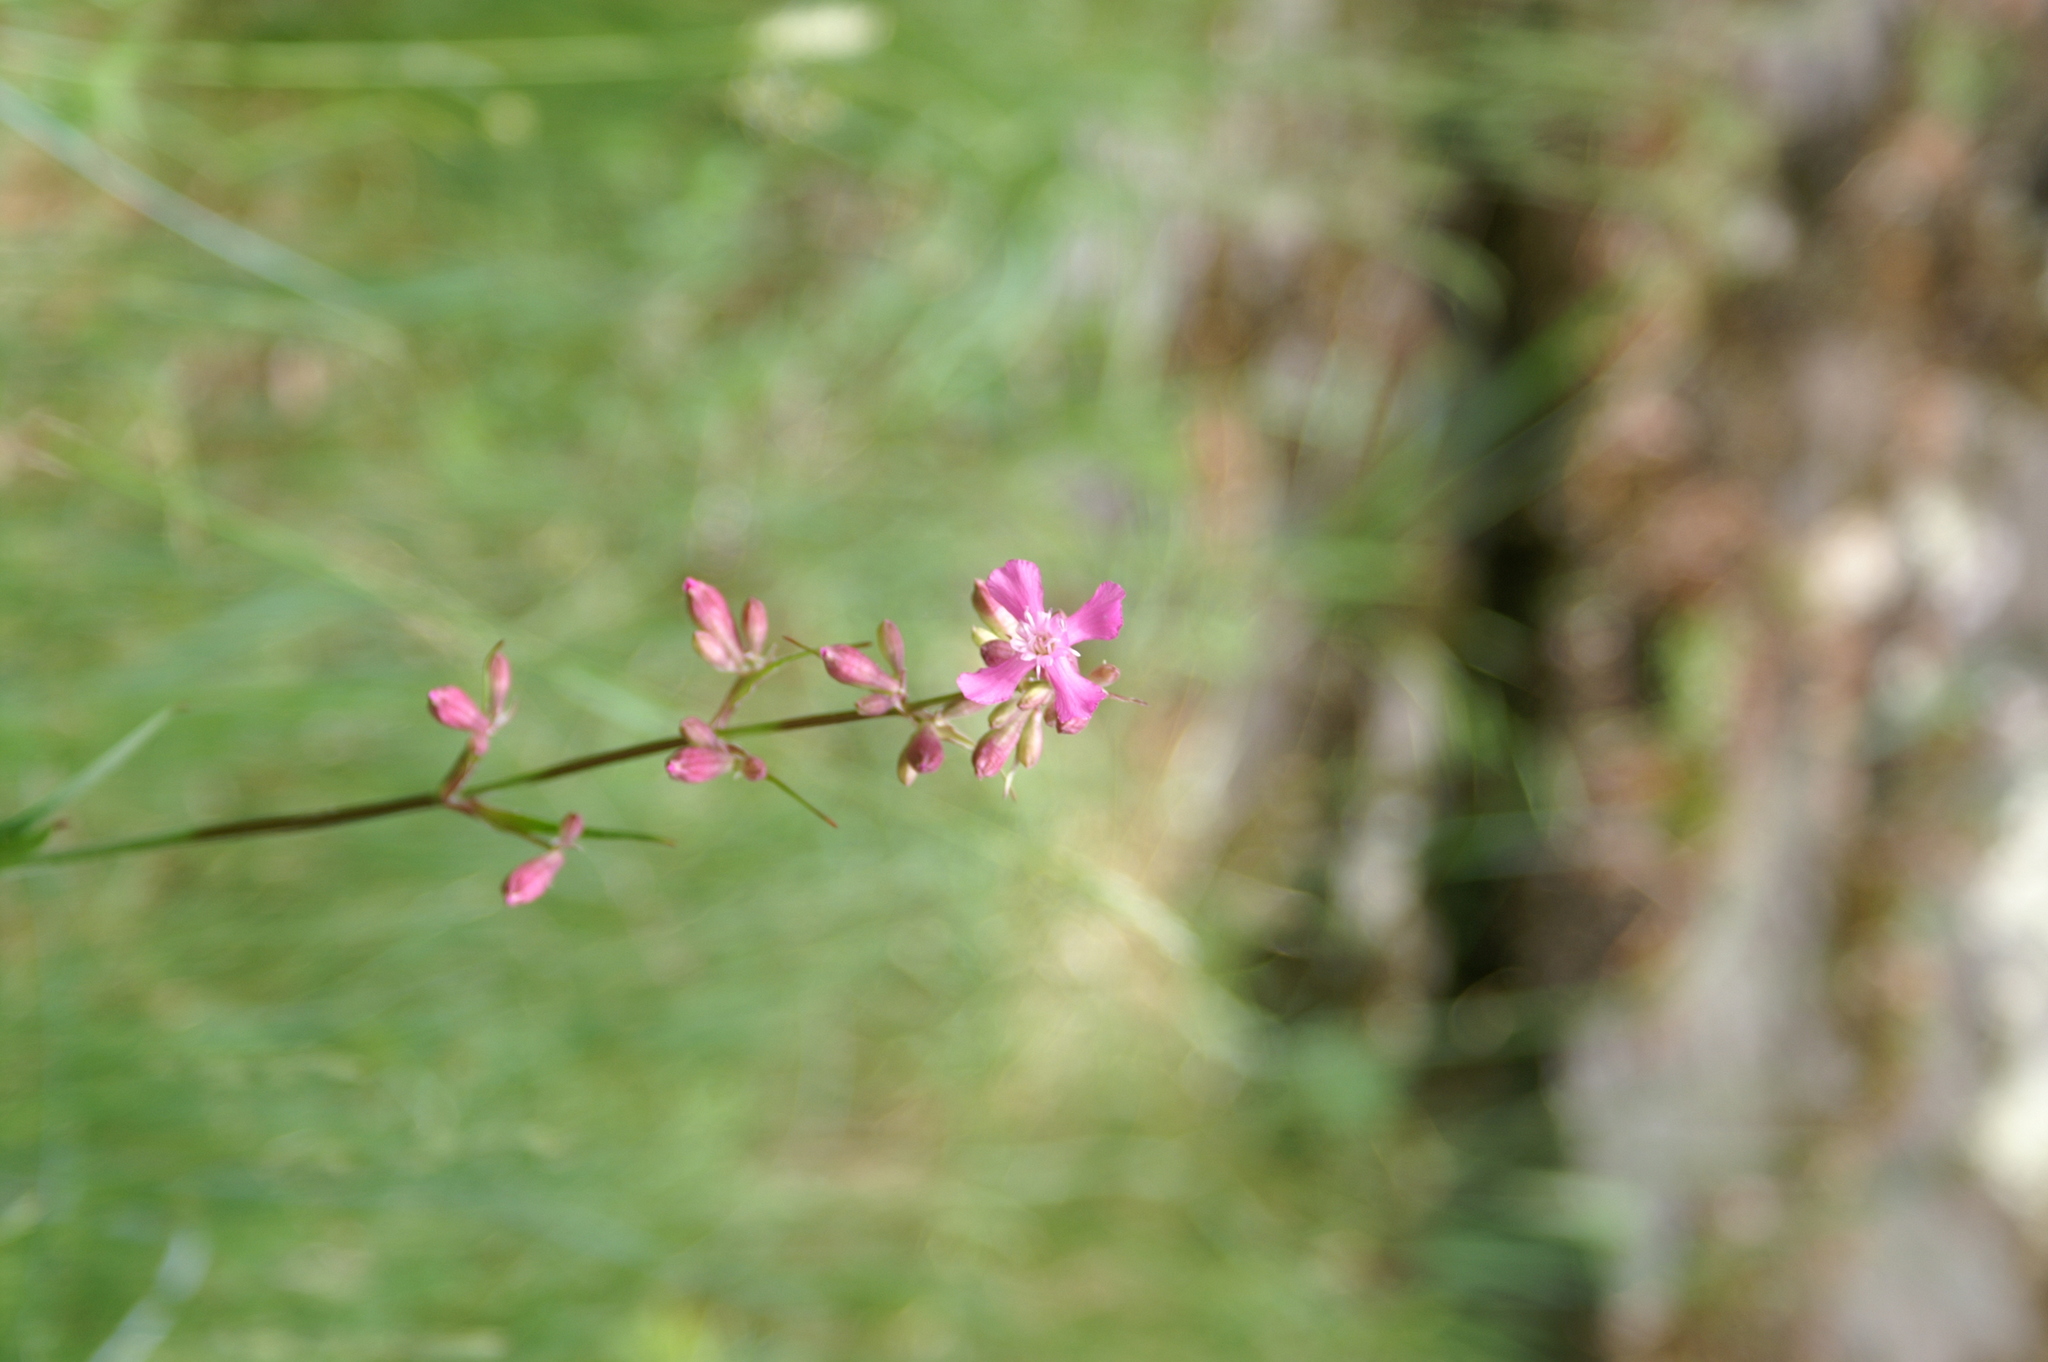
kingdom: Plantae
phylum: Tracheophyta
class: Magnoliopsida
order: Caryophyllales
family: Caryophyllaceae
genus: Viscaria
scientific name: Viscaria vulgaris
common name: Clammy campion
